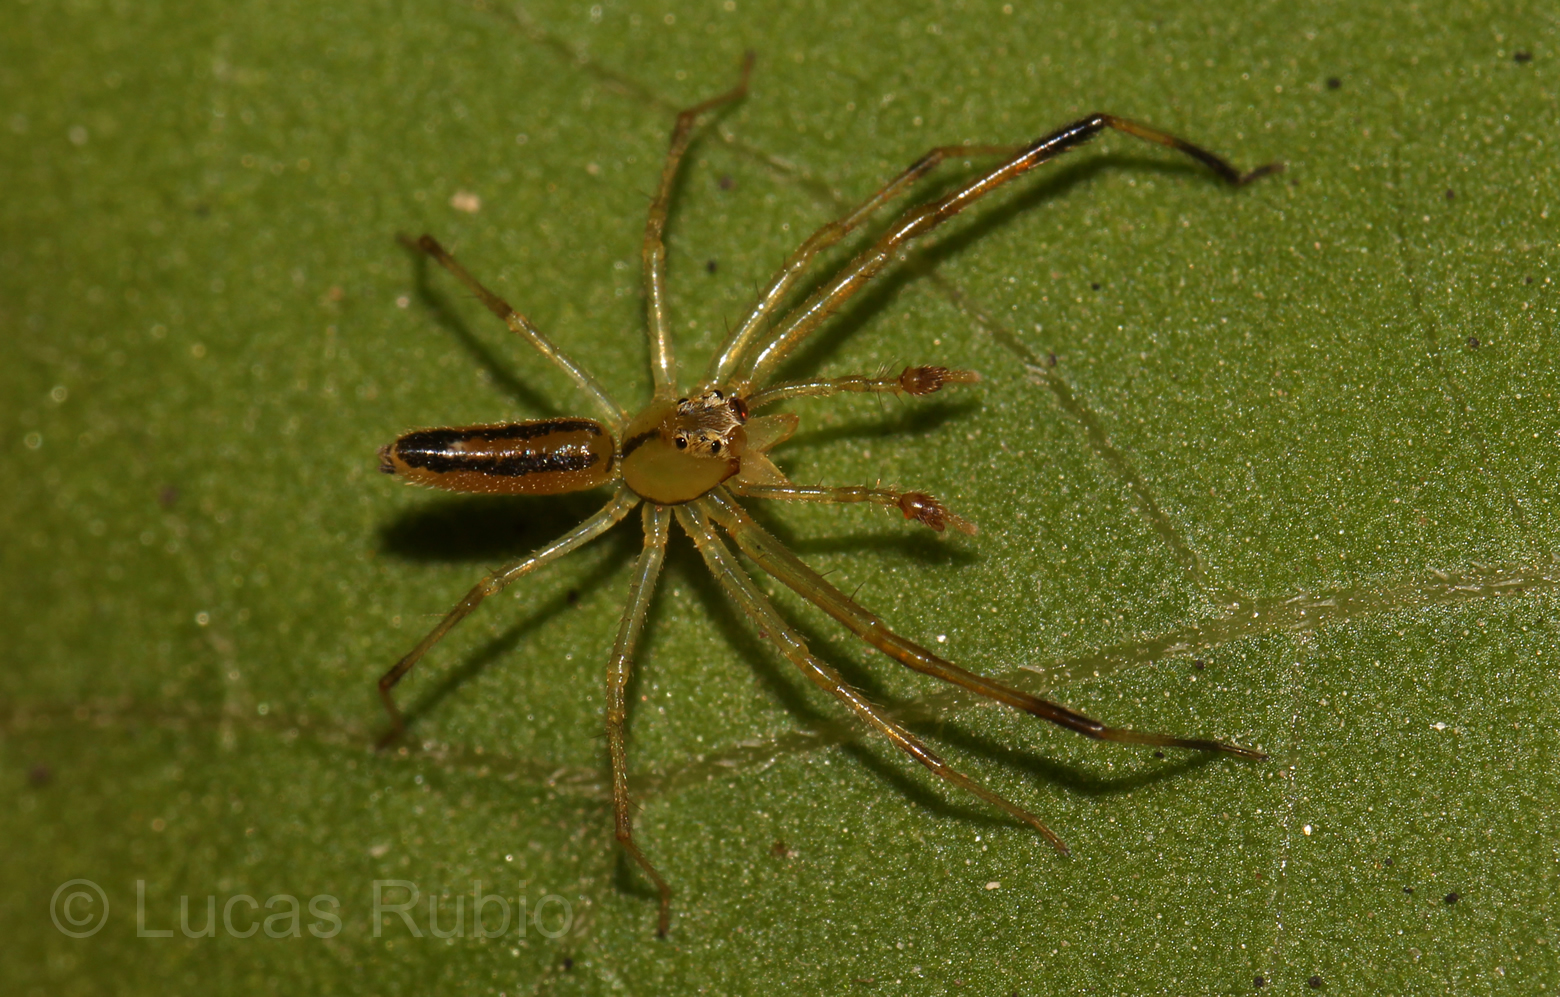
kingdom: Animalia
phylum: Arthropoda
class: Arachnida
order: Araneae
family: Salticidae
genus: Lyssomanes
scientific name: Lyssomanes pauper
